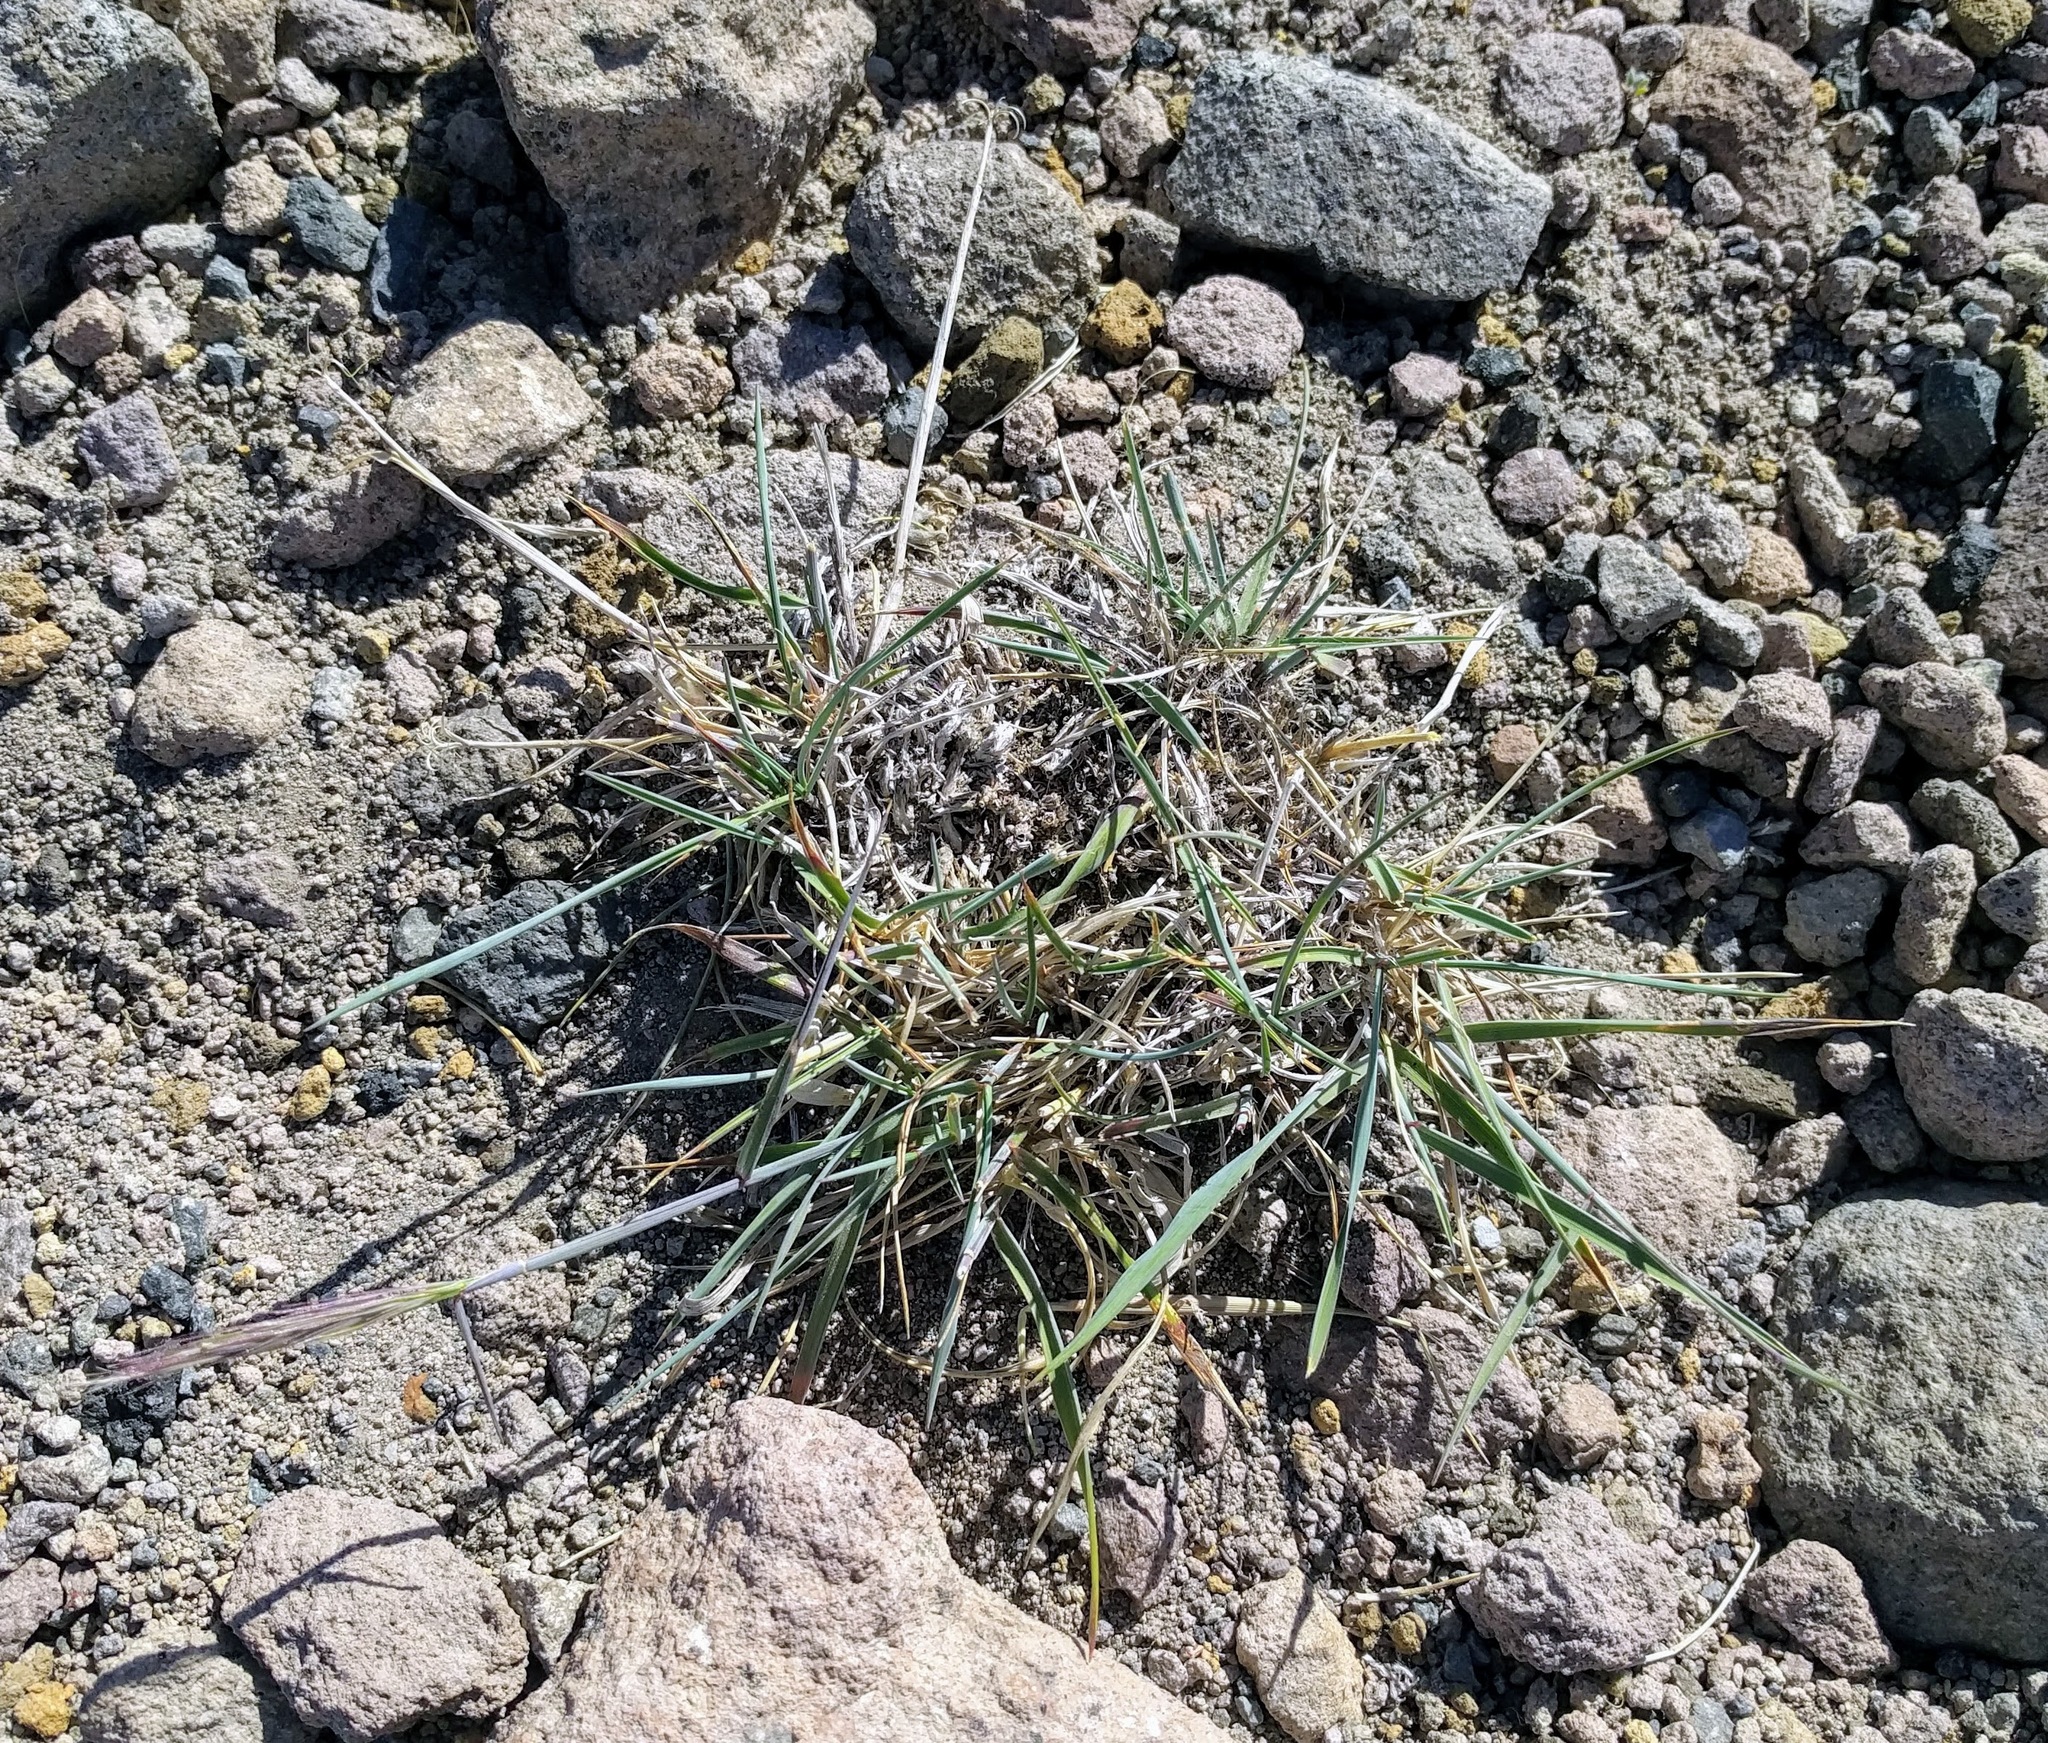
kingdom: Plantae
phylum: Tracheophyta
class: Liliopsida
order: Poales
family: Poaceae
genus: Elymus
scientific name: Elymus elymoides
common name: Bottlebrush squirreltail
